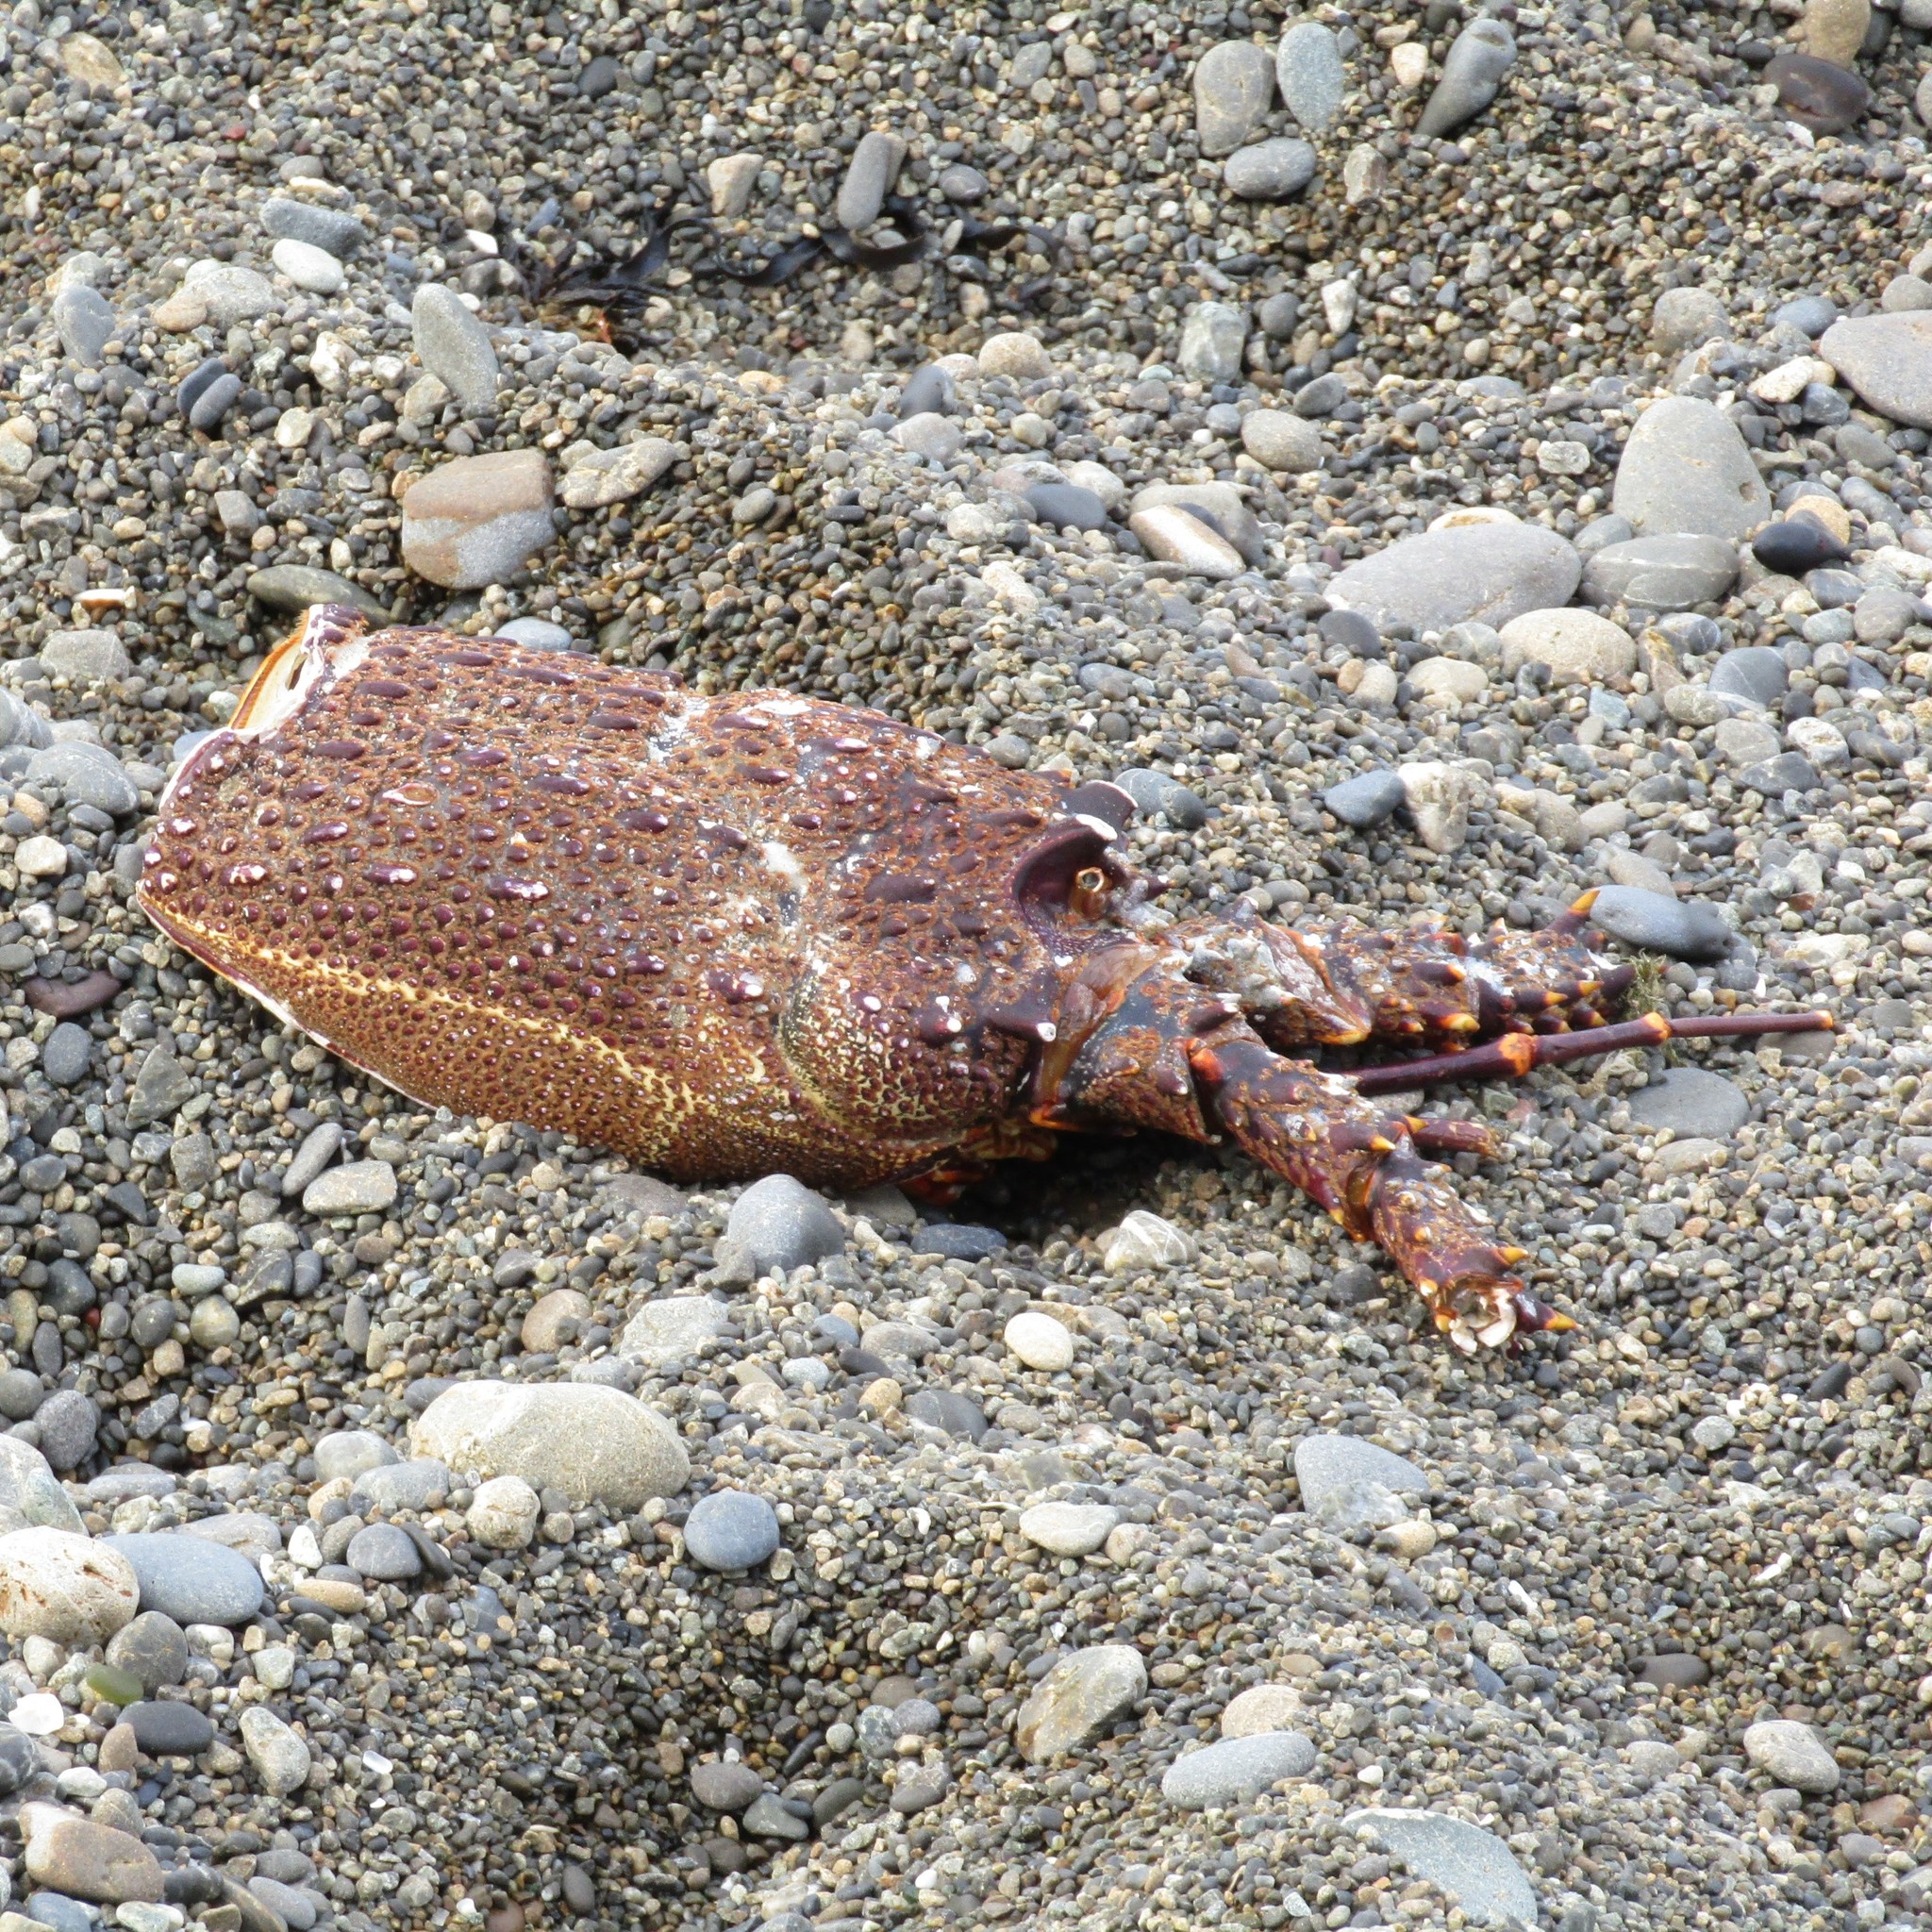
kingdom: Animalia
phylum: Arthropoda
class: Malacostraca
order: Decapoda
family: Palinuridae
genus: Jasus
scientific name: Jasus edwardsii
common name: Red rock lobster
